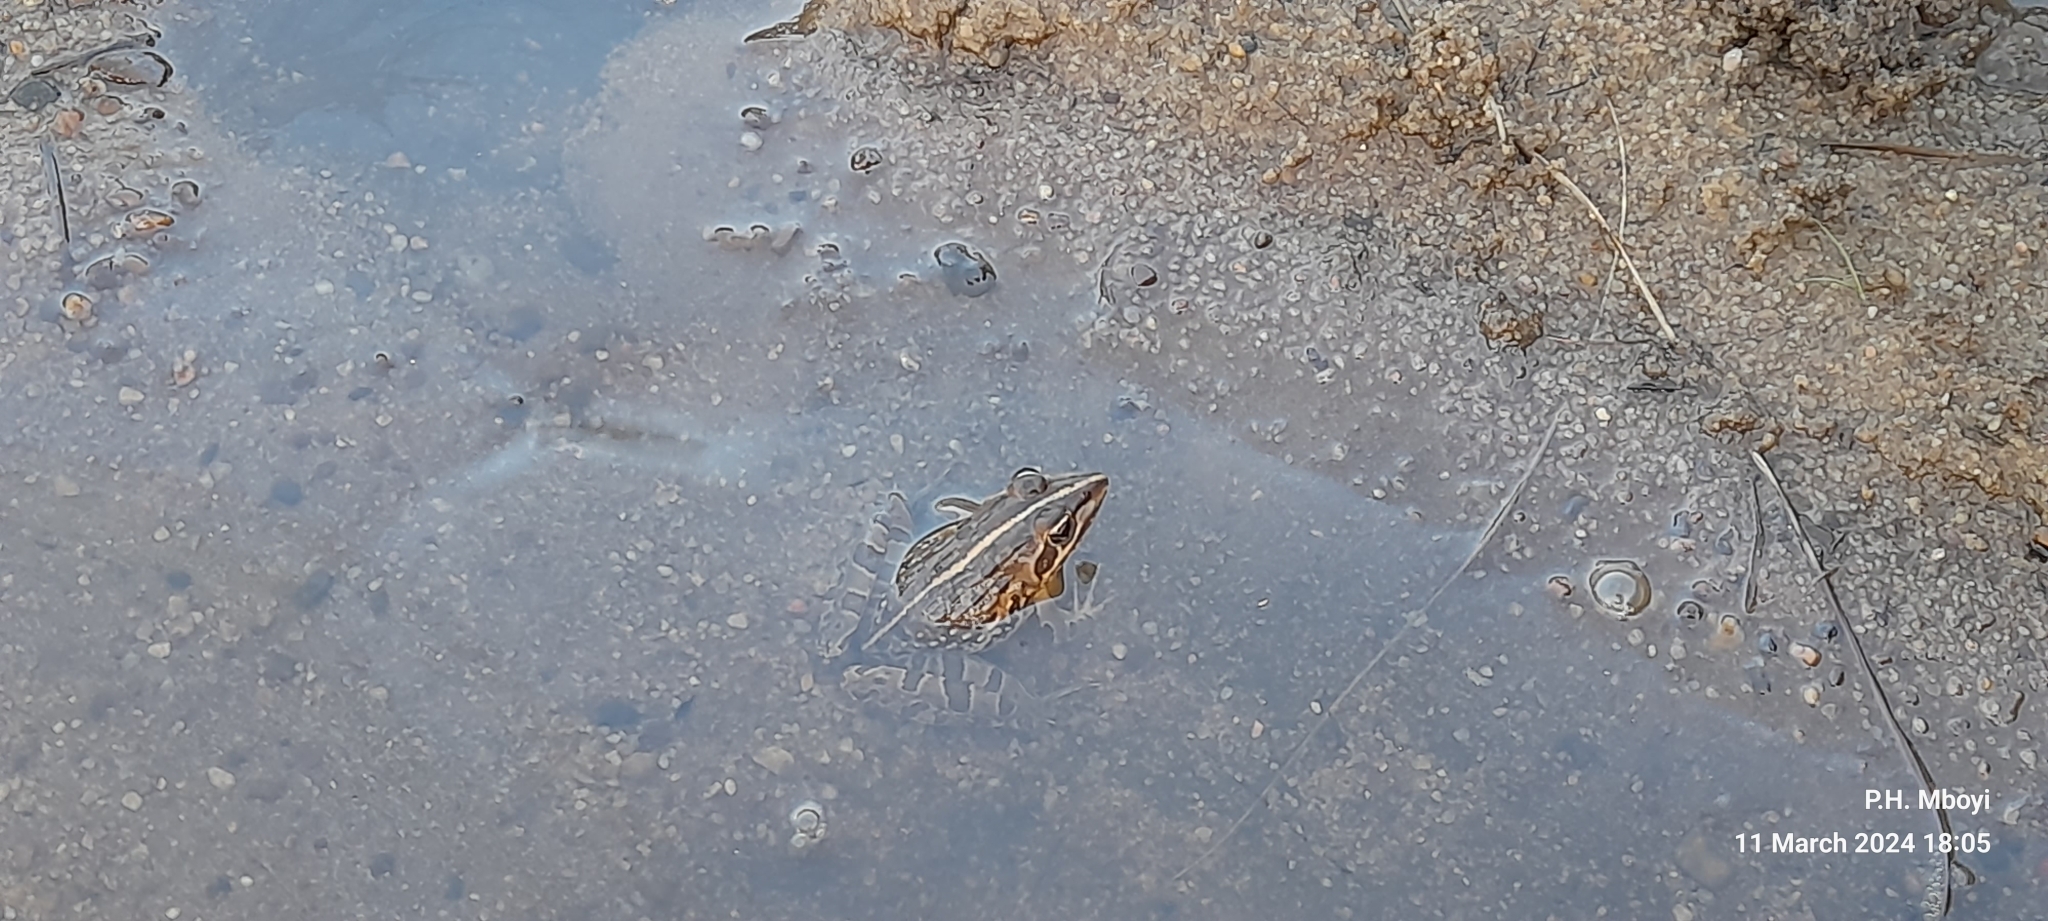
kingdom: Animalia
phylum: Chordata
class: Amphibia
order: Anura
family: Pyxicephalidae
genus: Amietia
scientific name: Amietia delalandii
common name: Delalande's river frog
